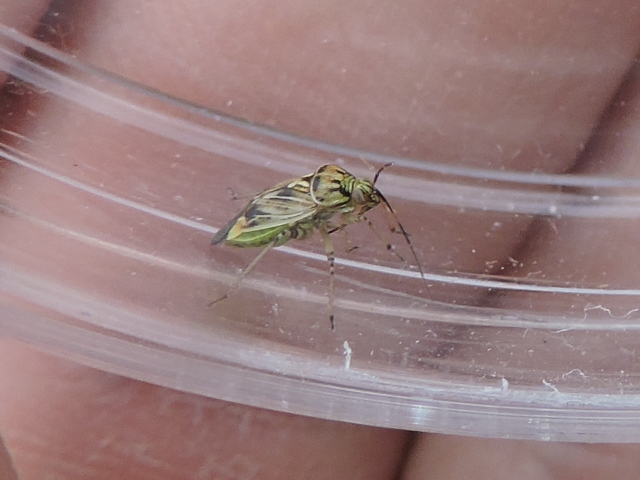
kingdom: Animalia
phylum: Arthropoda
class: Insecta
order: Hemiptera
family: Miridae
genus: Lygus
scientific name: Lygus lineolaris
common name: North american tarnished plant bug
